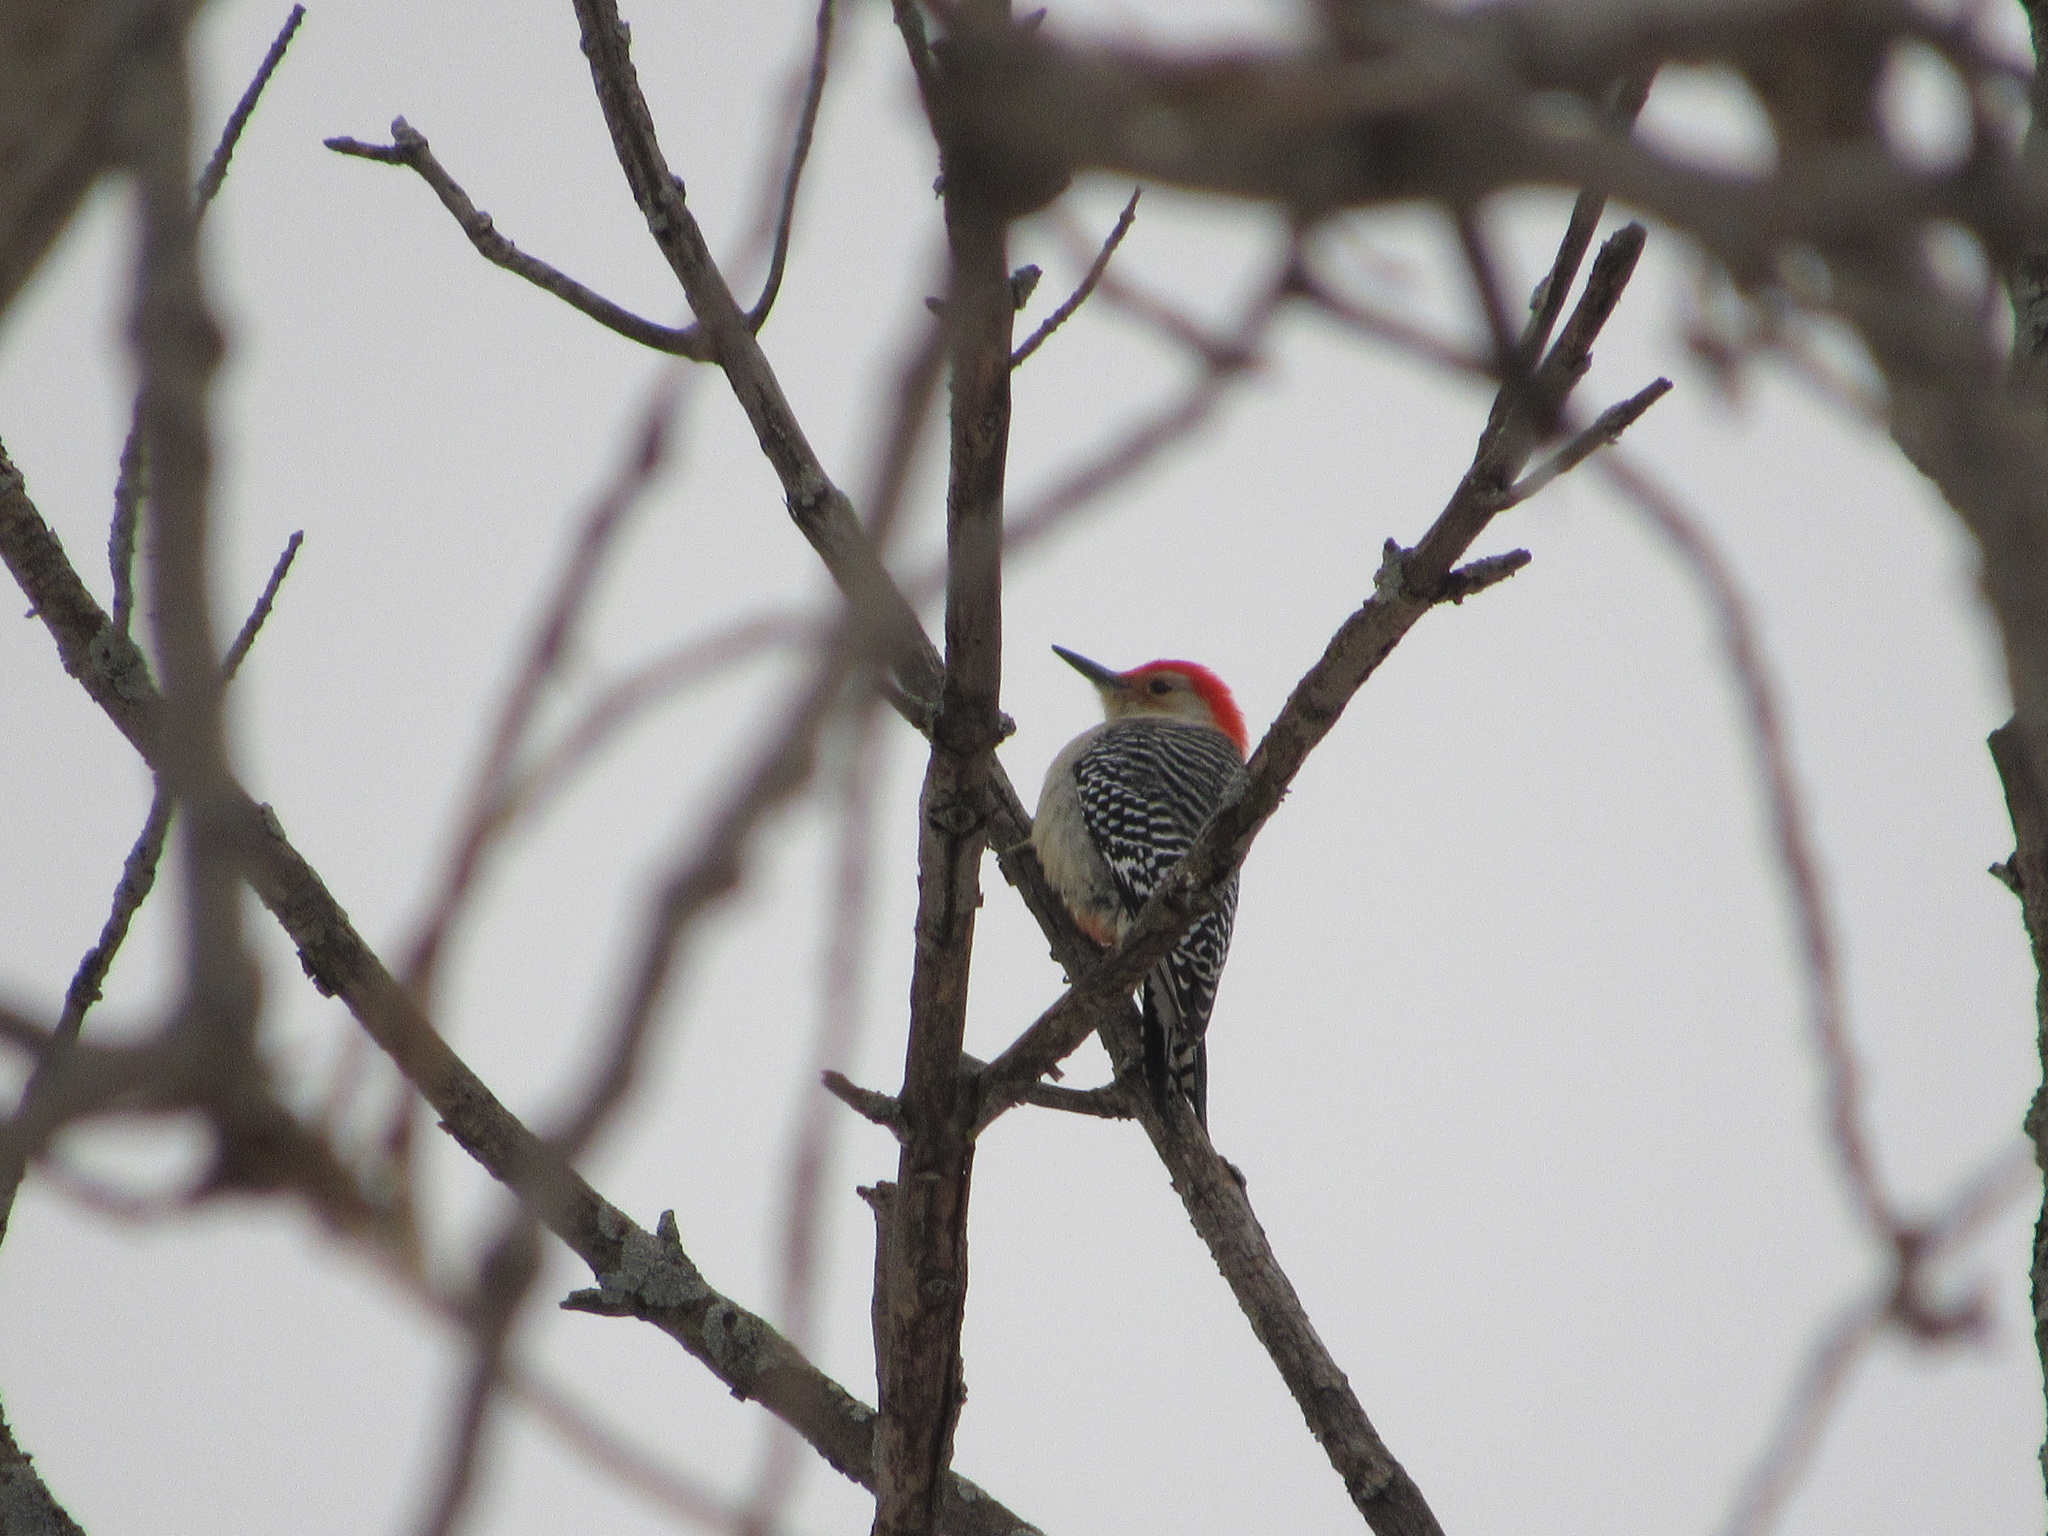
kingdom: Animalia
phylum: Chordata
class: Aves
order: Piciformes
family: Picidae
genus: Melanerpes
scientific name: Melanerpes carolinus
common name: Red-bellied woodpecker
